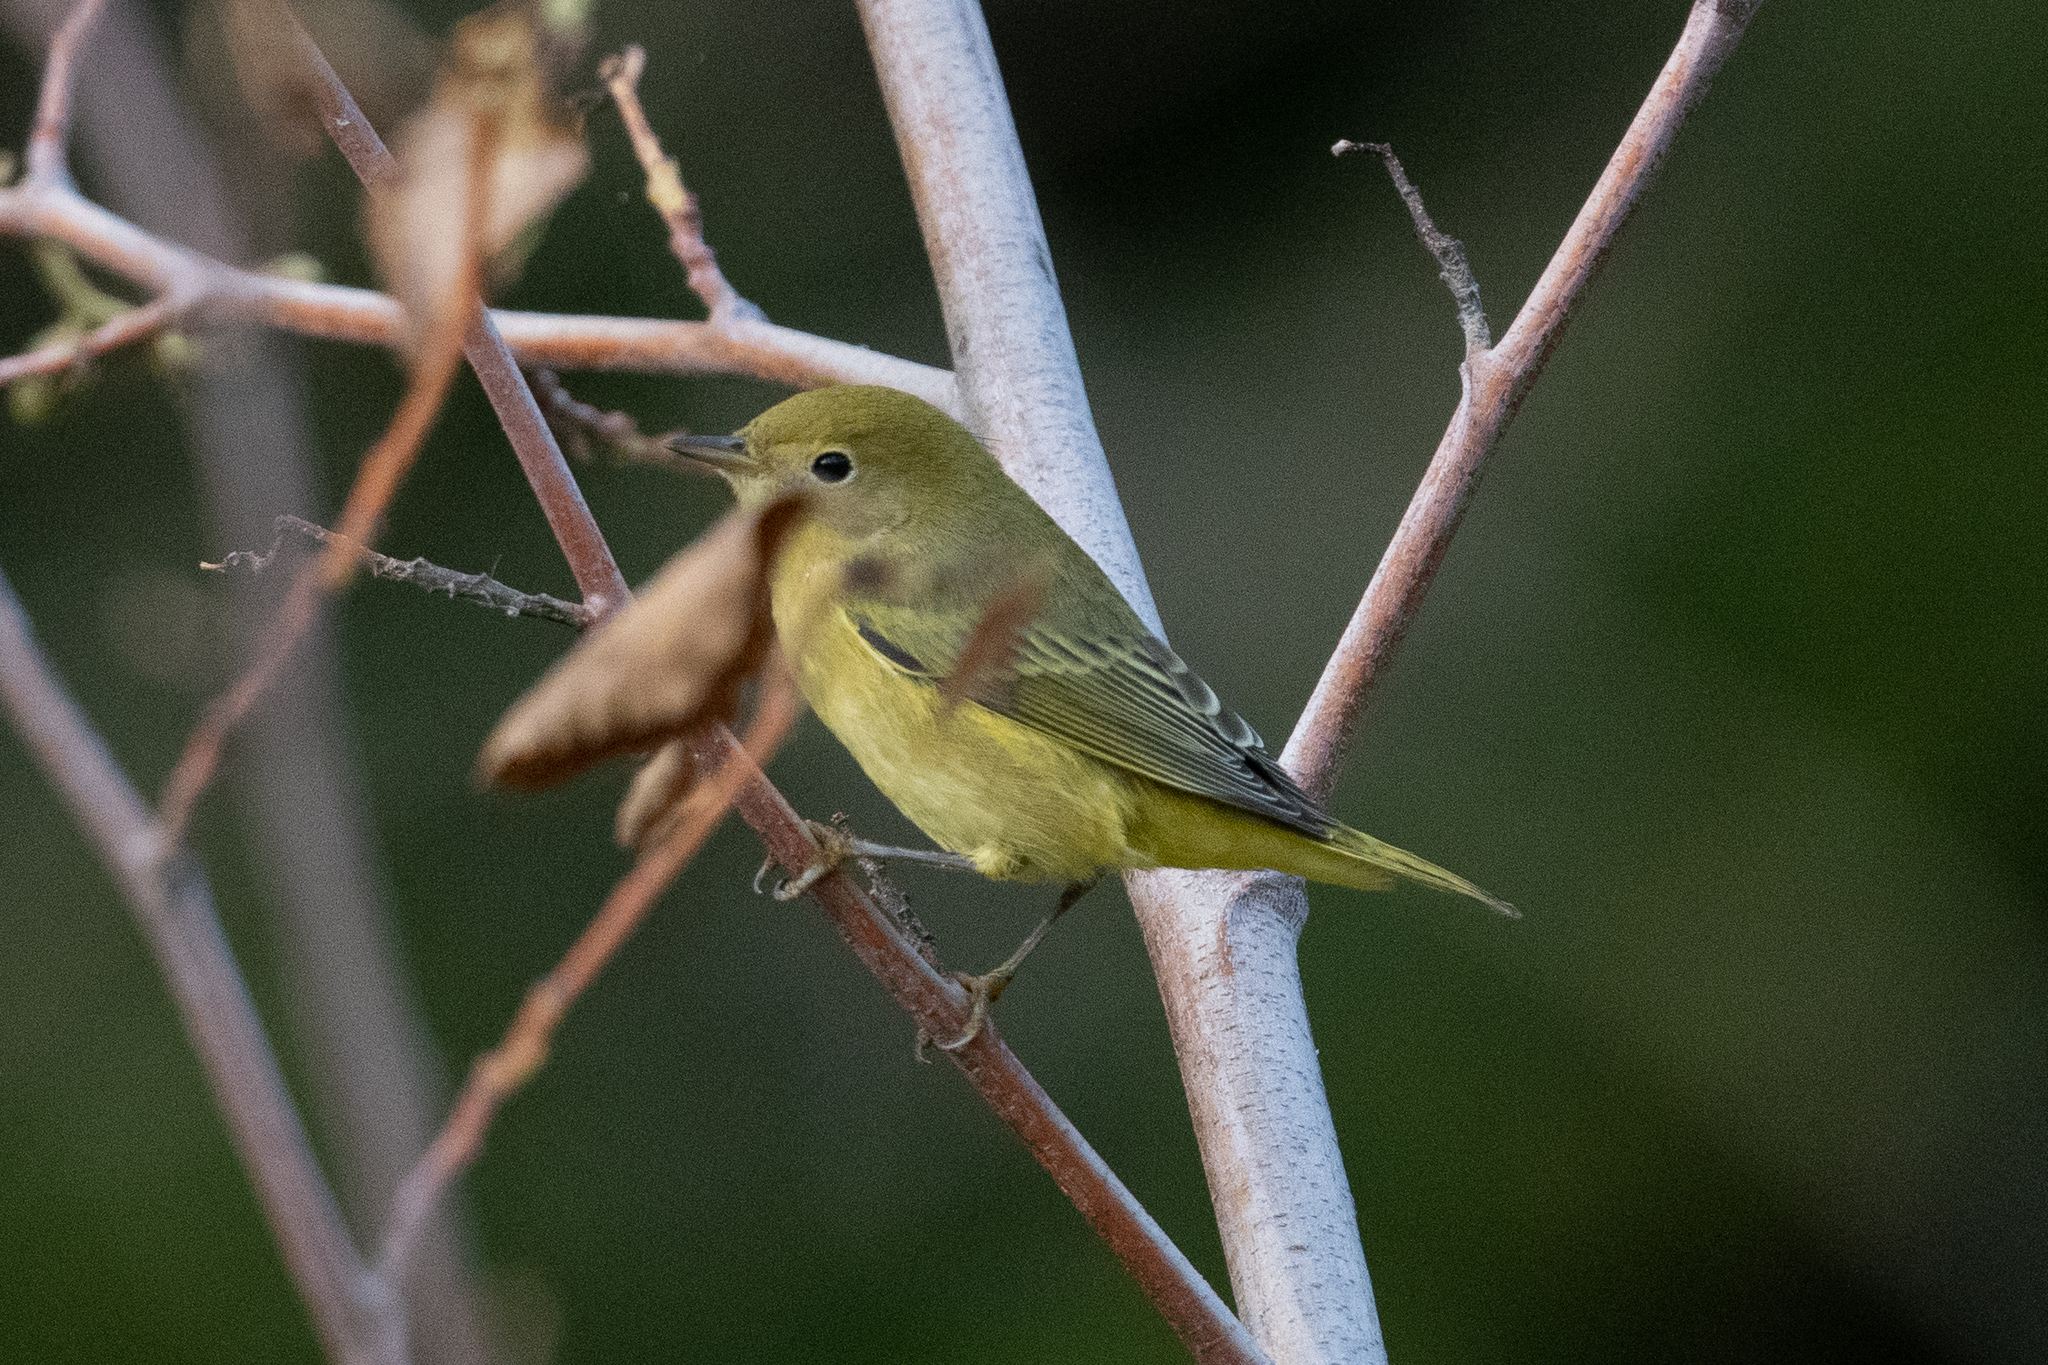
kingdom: Animalia
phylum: Chordata
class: Aves
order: Passeriformes
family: Parulidae
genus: Setophaga
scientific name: Setophaga petechia
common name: Yellow warbler
